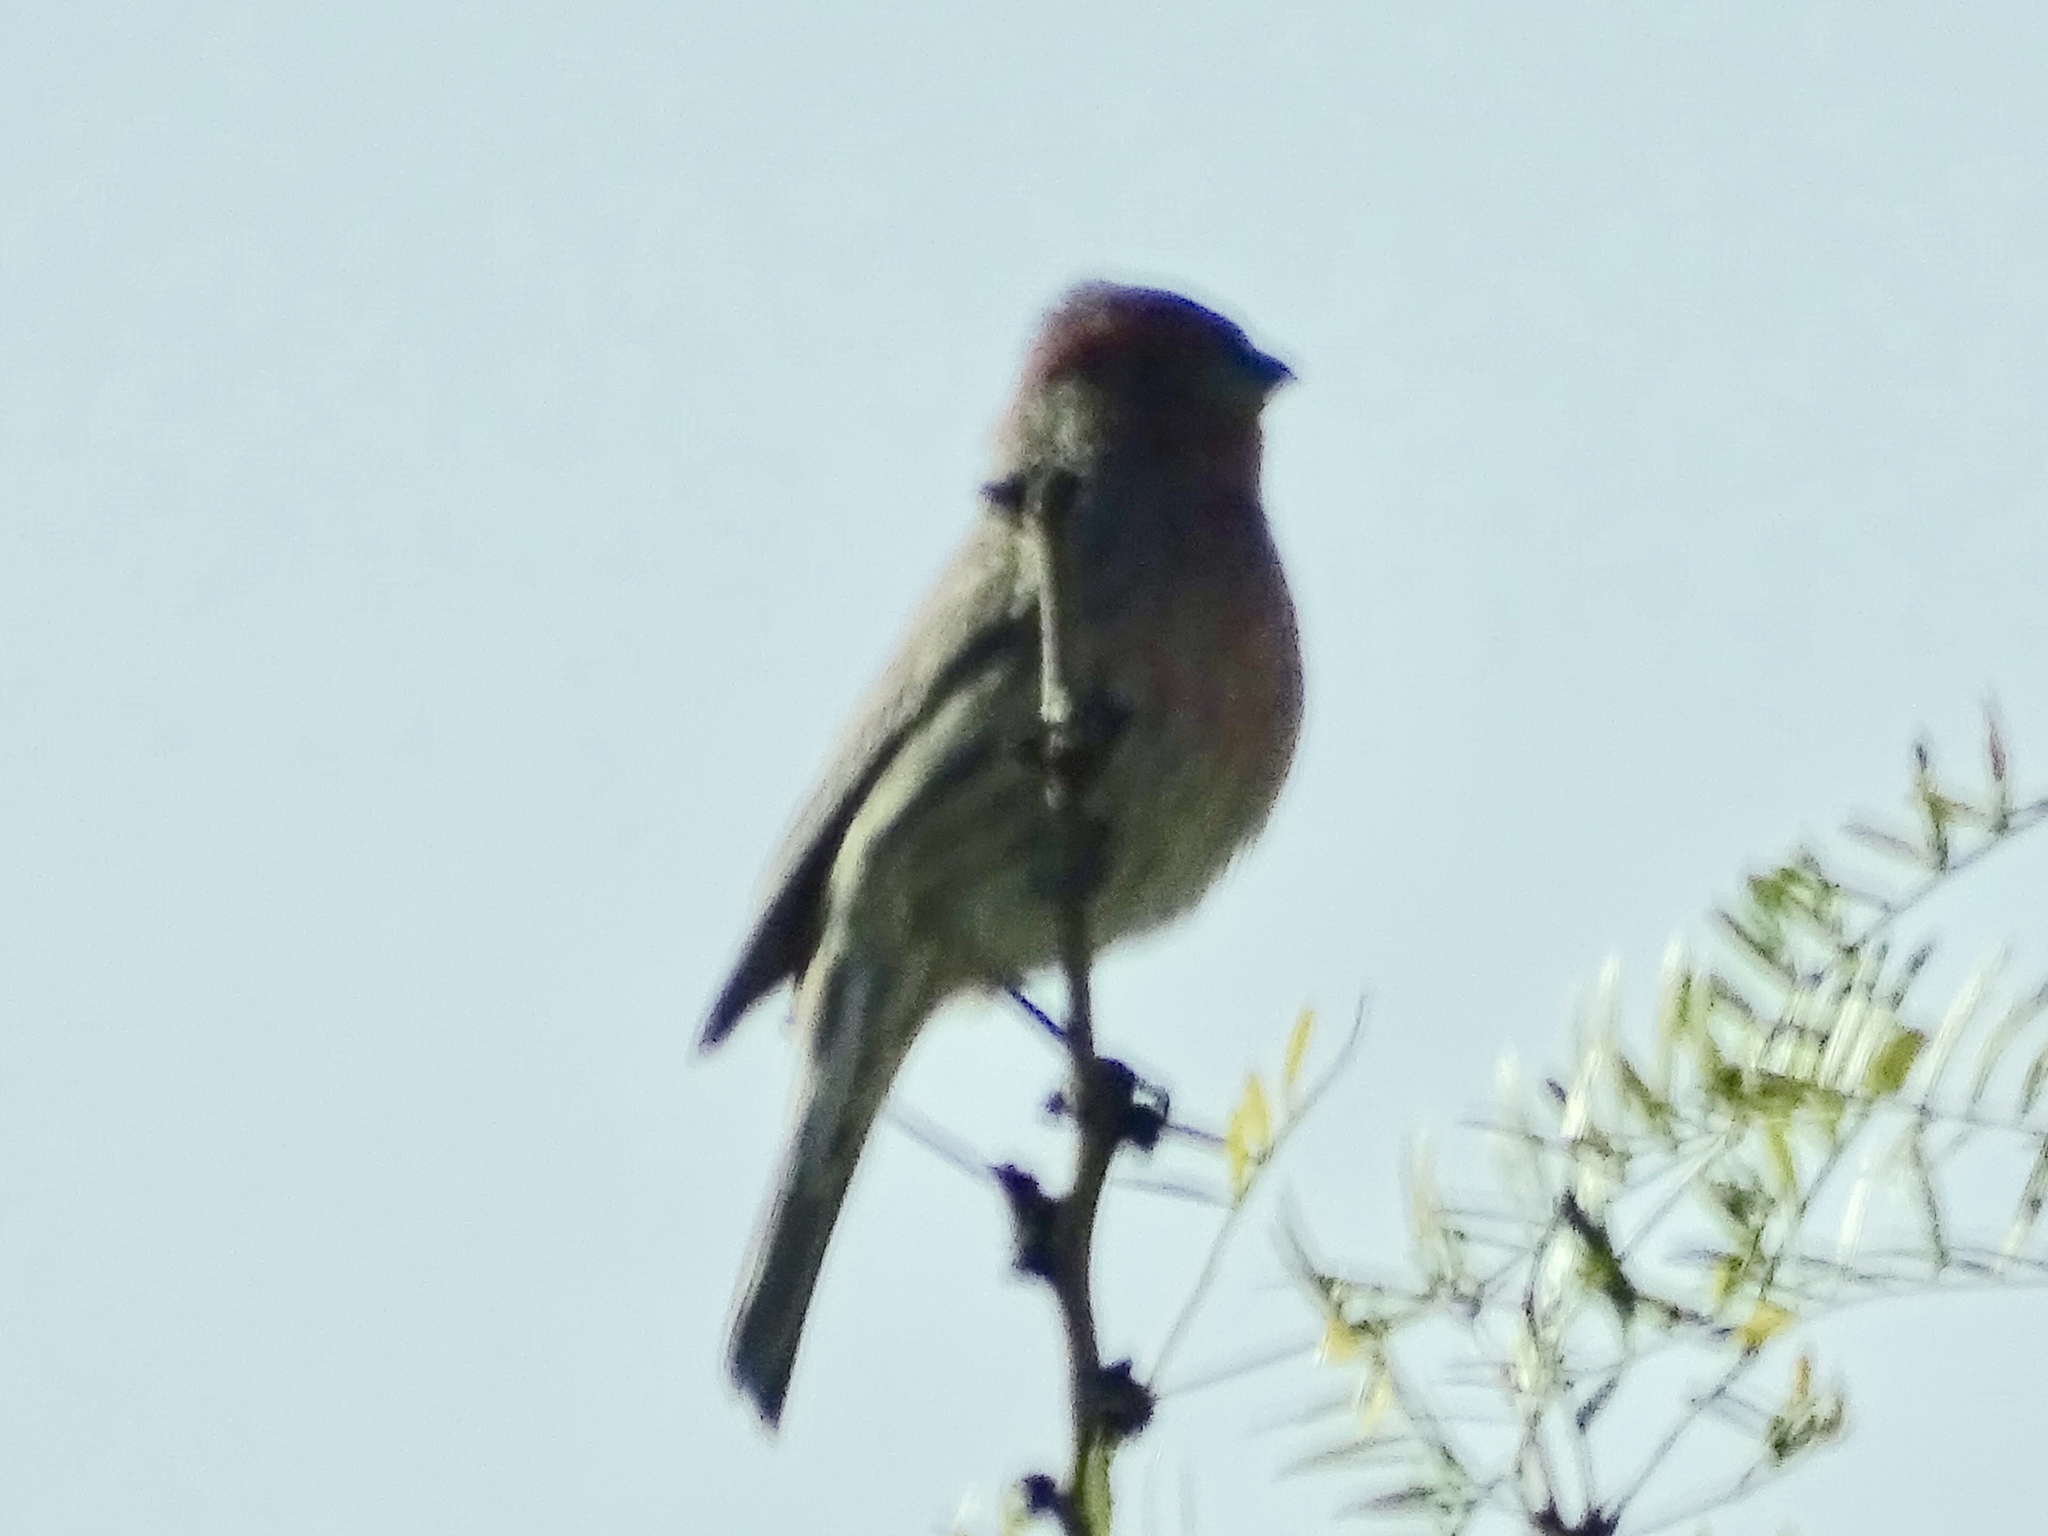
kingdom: Animalia
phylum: Chordata
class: Aves
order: Passeriformes
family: Fringillidae
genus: Haemorhous
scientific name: Haemorhous mexicanus
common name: House finch
